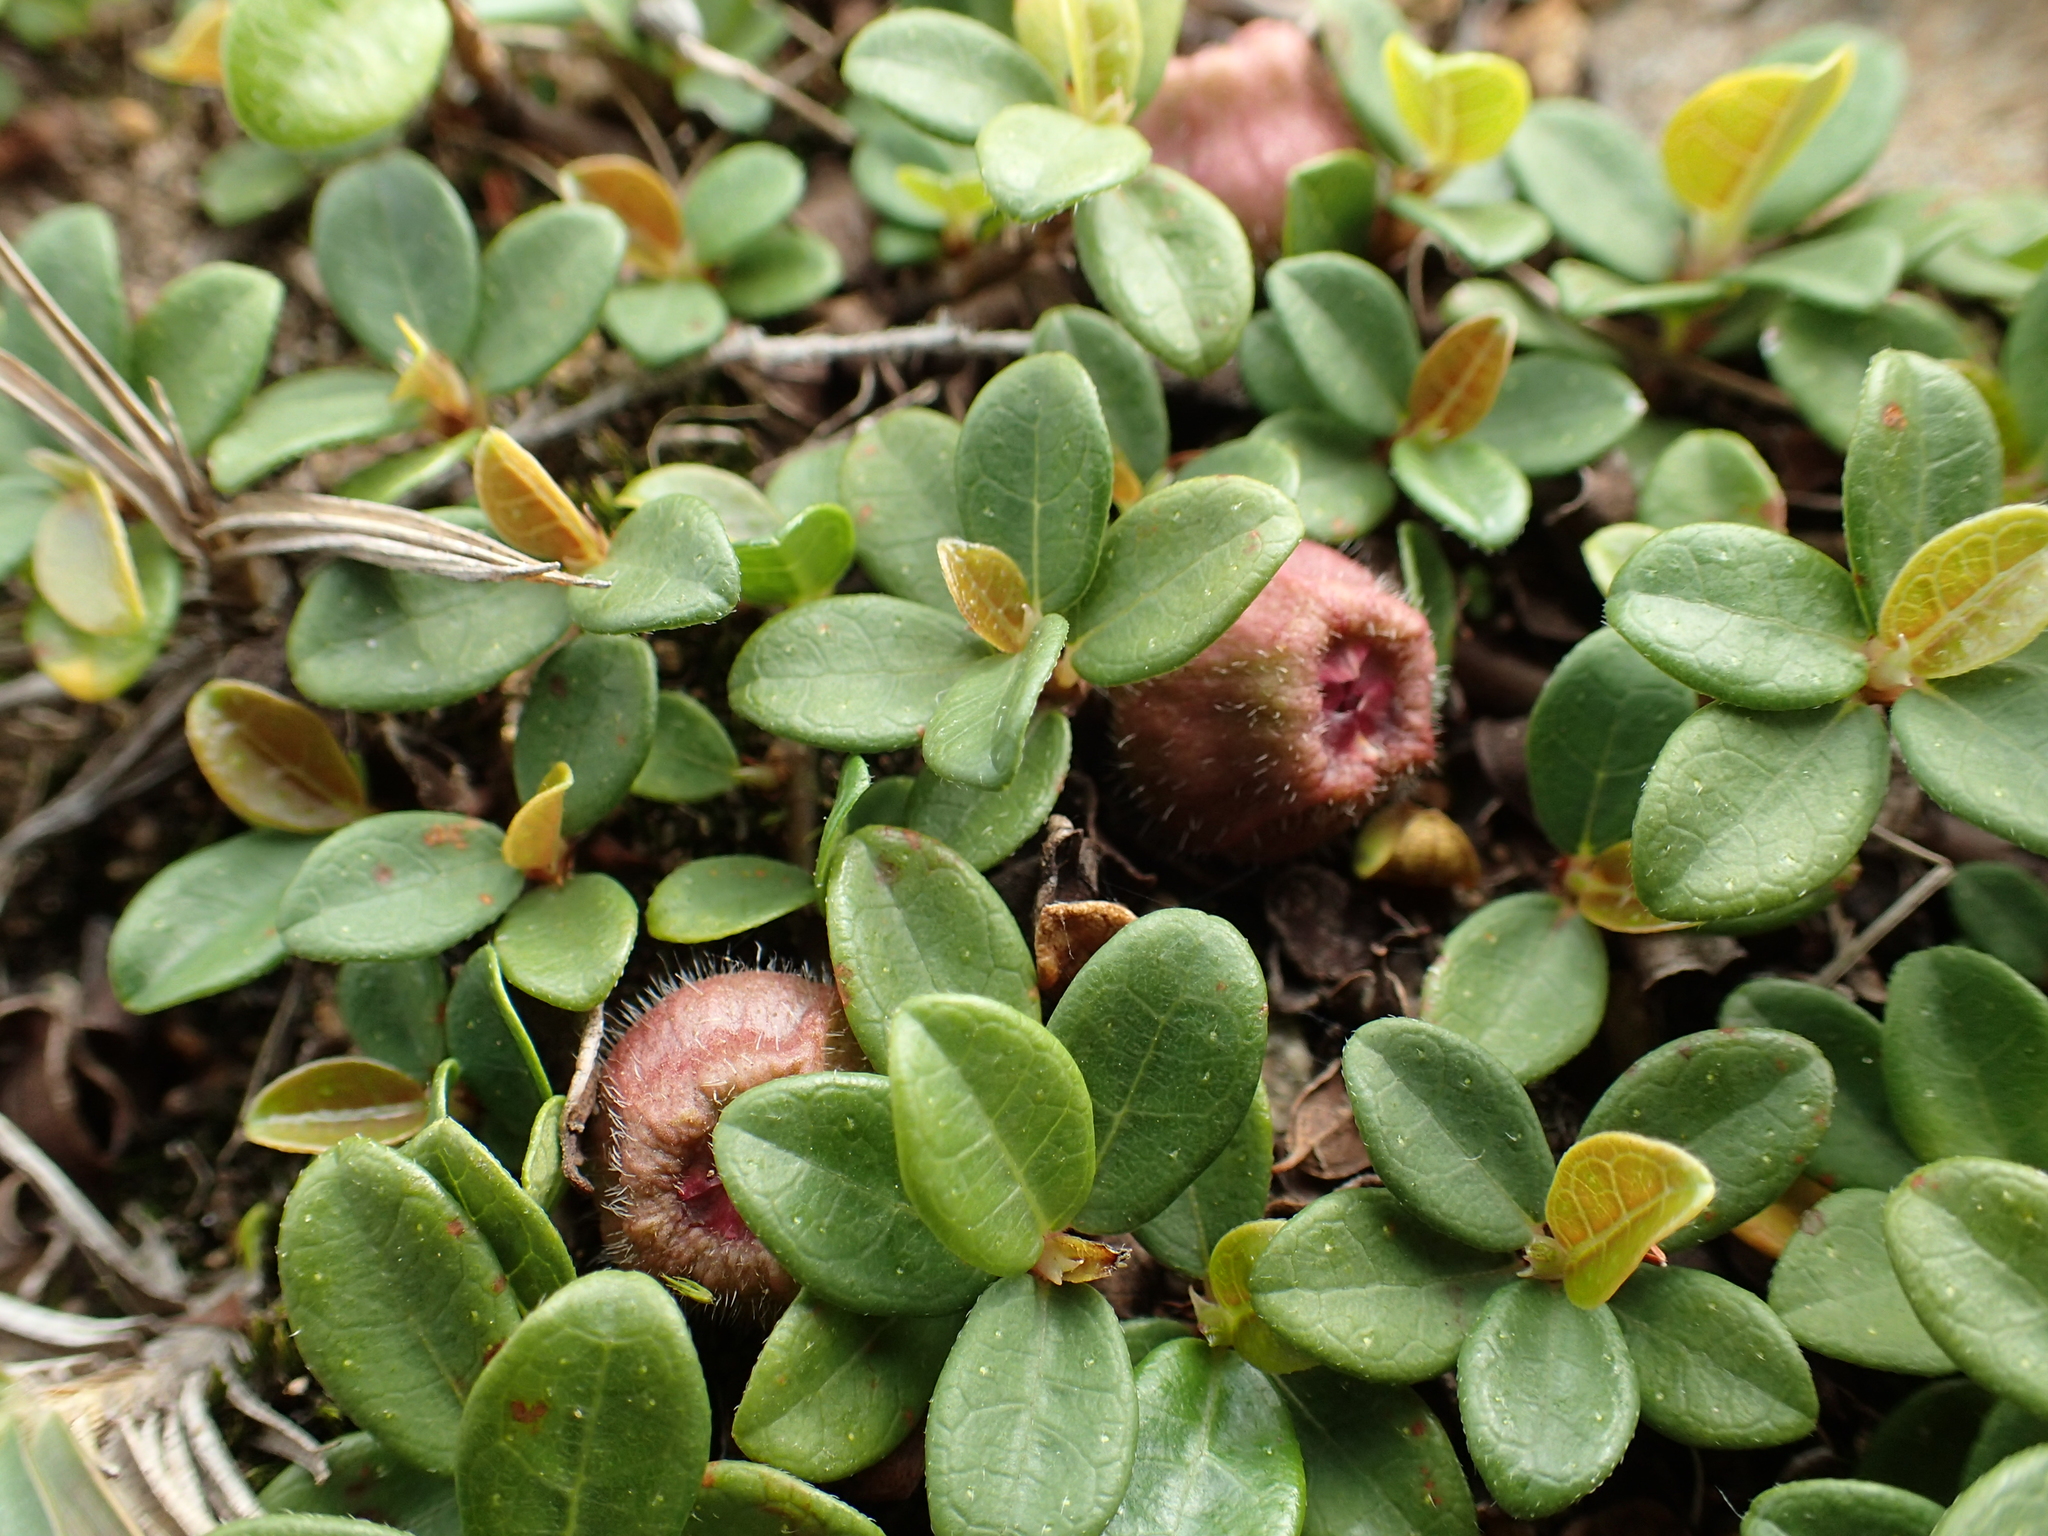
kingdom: Plantae
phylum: Tracheophyta
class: Magnoliopsida
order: Rosales
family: Moraceae
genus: Ficus
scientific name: Ficus vaccinioides
